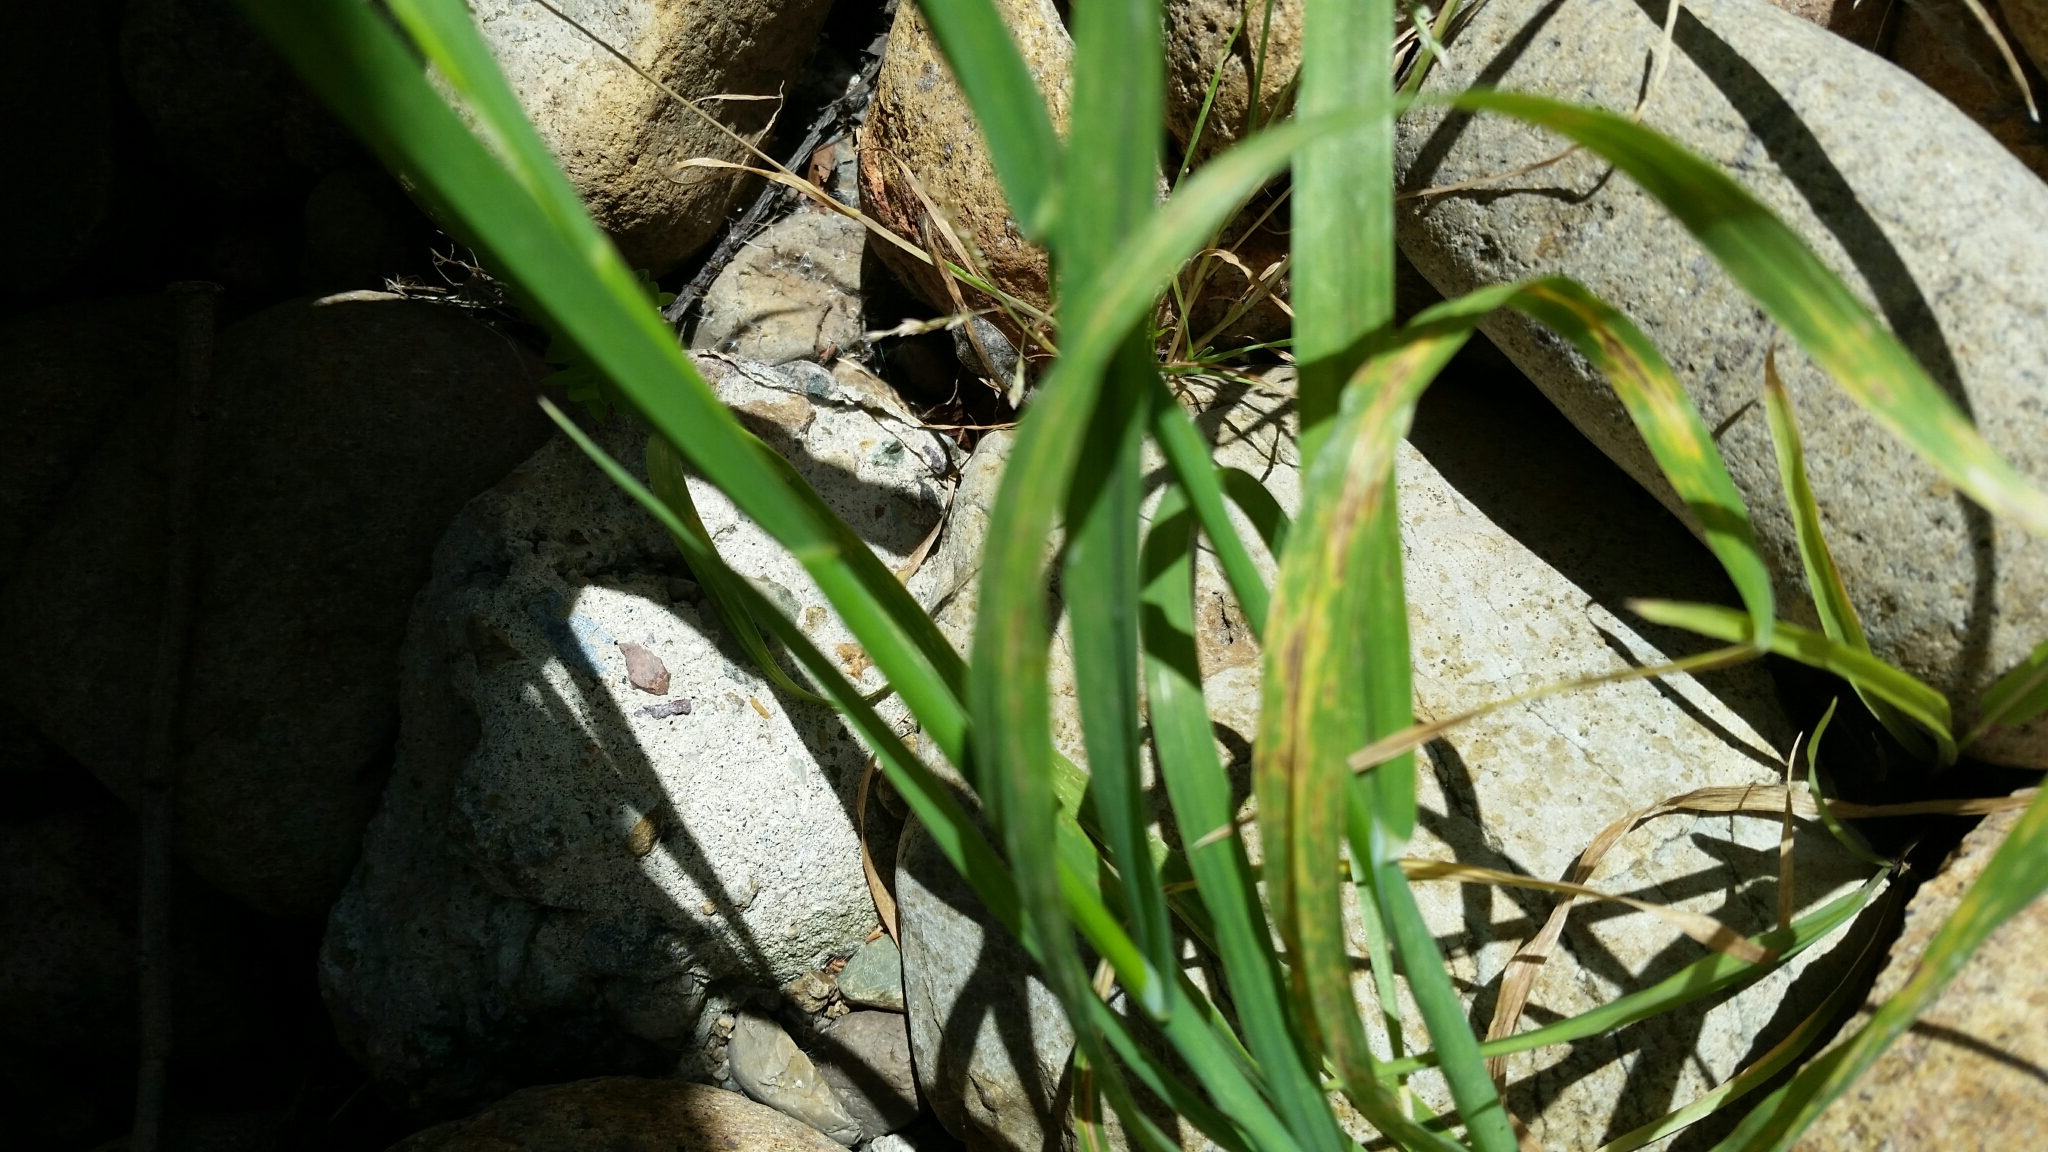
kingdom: Plantae
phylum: Tracheophyta
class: Liliopsida
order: Poales
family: Poaceae
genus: Bromus
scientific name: Bromus catharticus
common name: Rescuegrass
